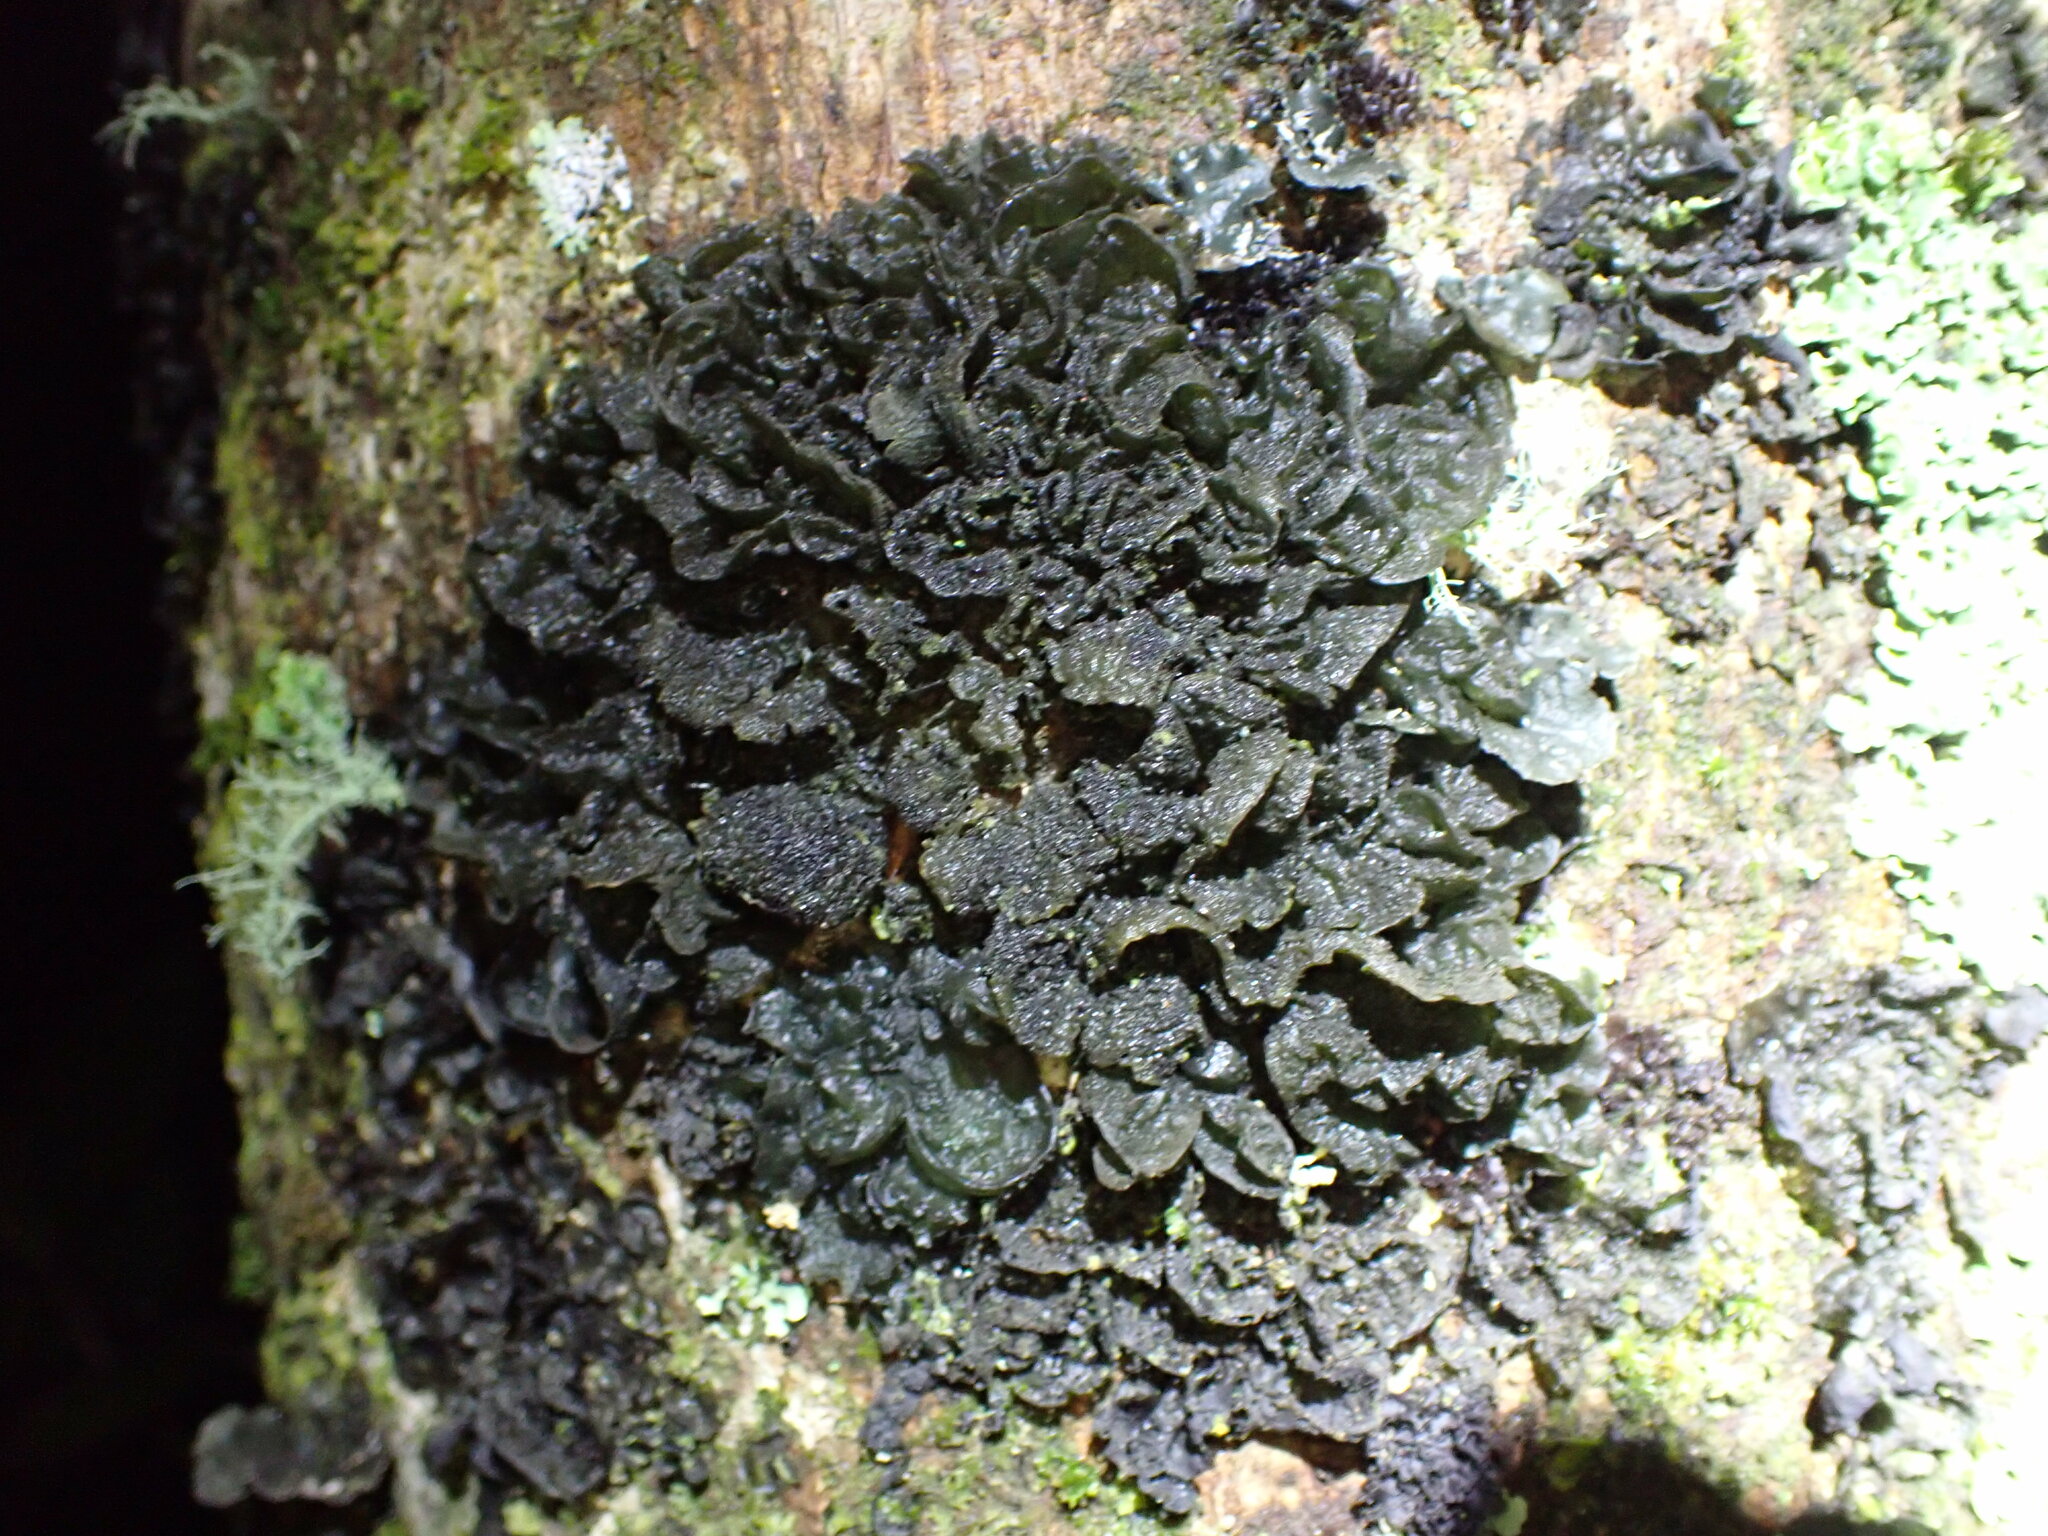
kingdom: Fungi
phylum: Ascomycota
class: Lecanoromycetes
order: Peltigerales
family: Collemataceae
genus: Leptogium
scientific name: Leptogium coralloideum
